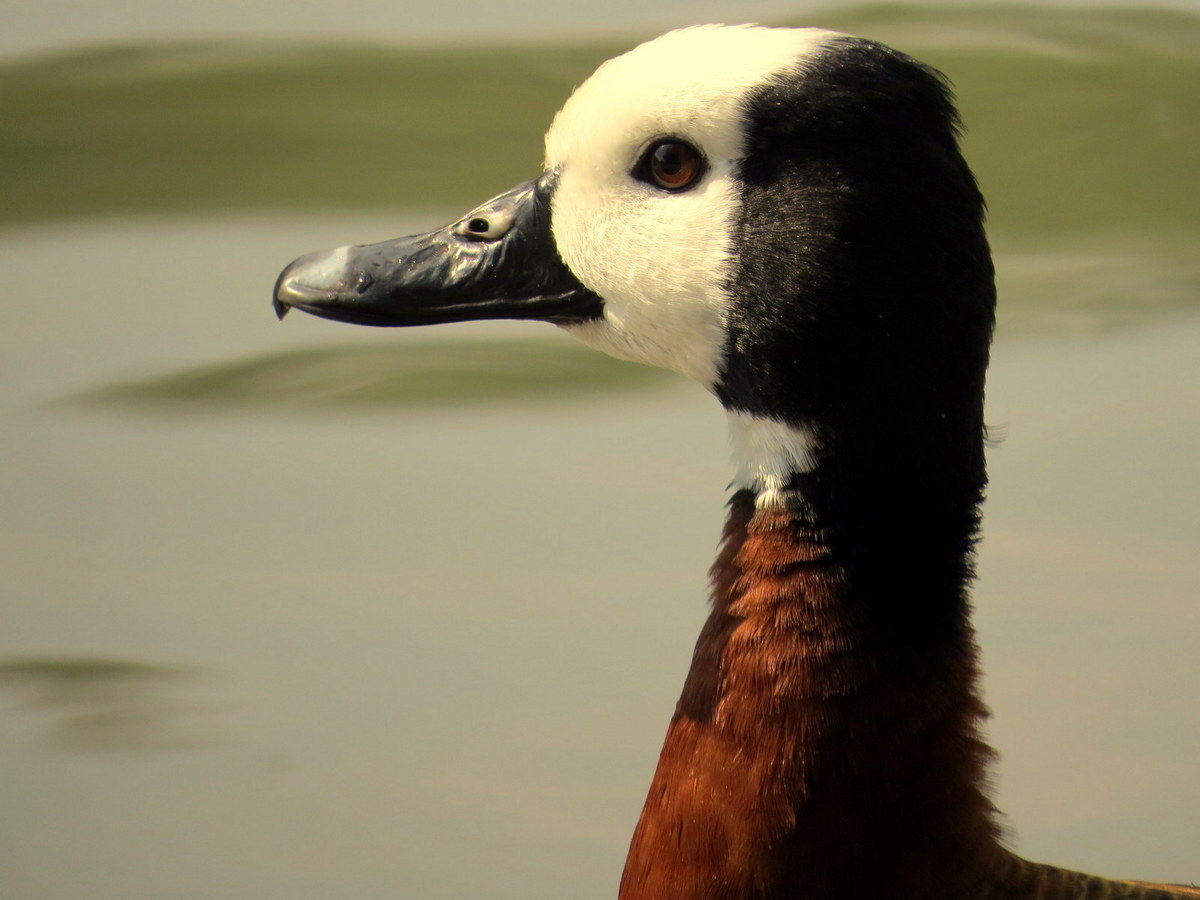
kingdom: Animalia
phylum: Chordata
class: Aves
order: Anseriformes
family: Anatidae
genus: Dendrocygna
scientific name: Dendrocygna viduata
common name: White-faced whistling duck
